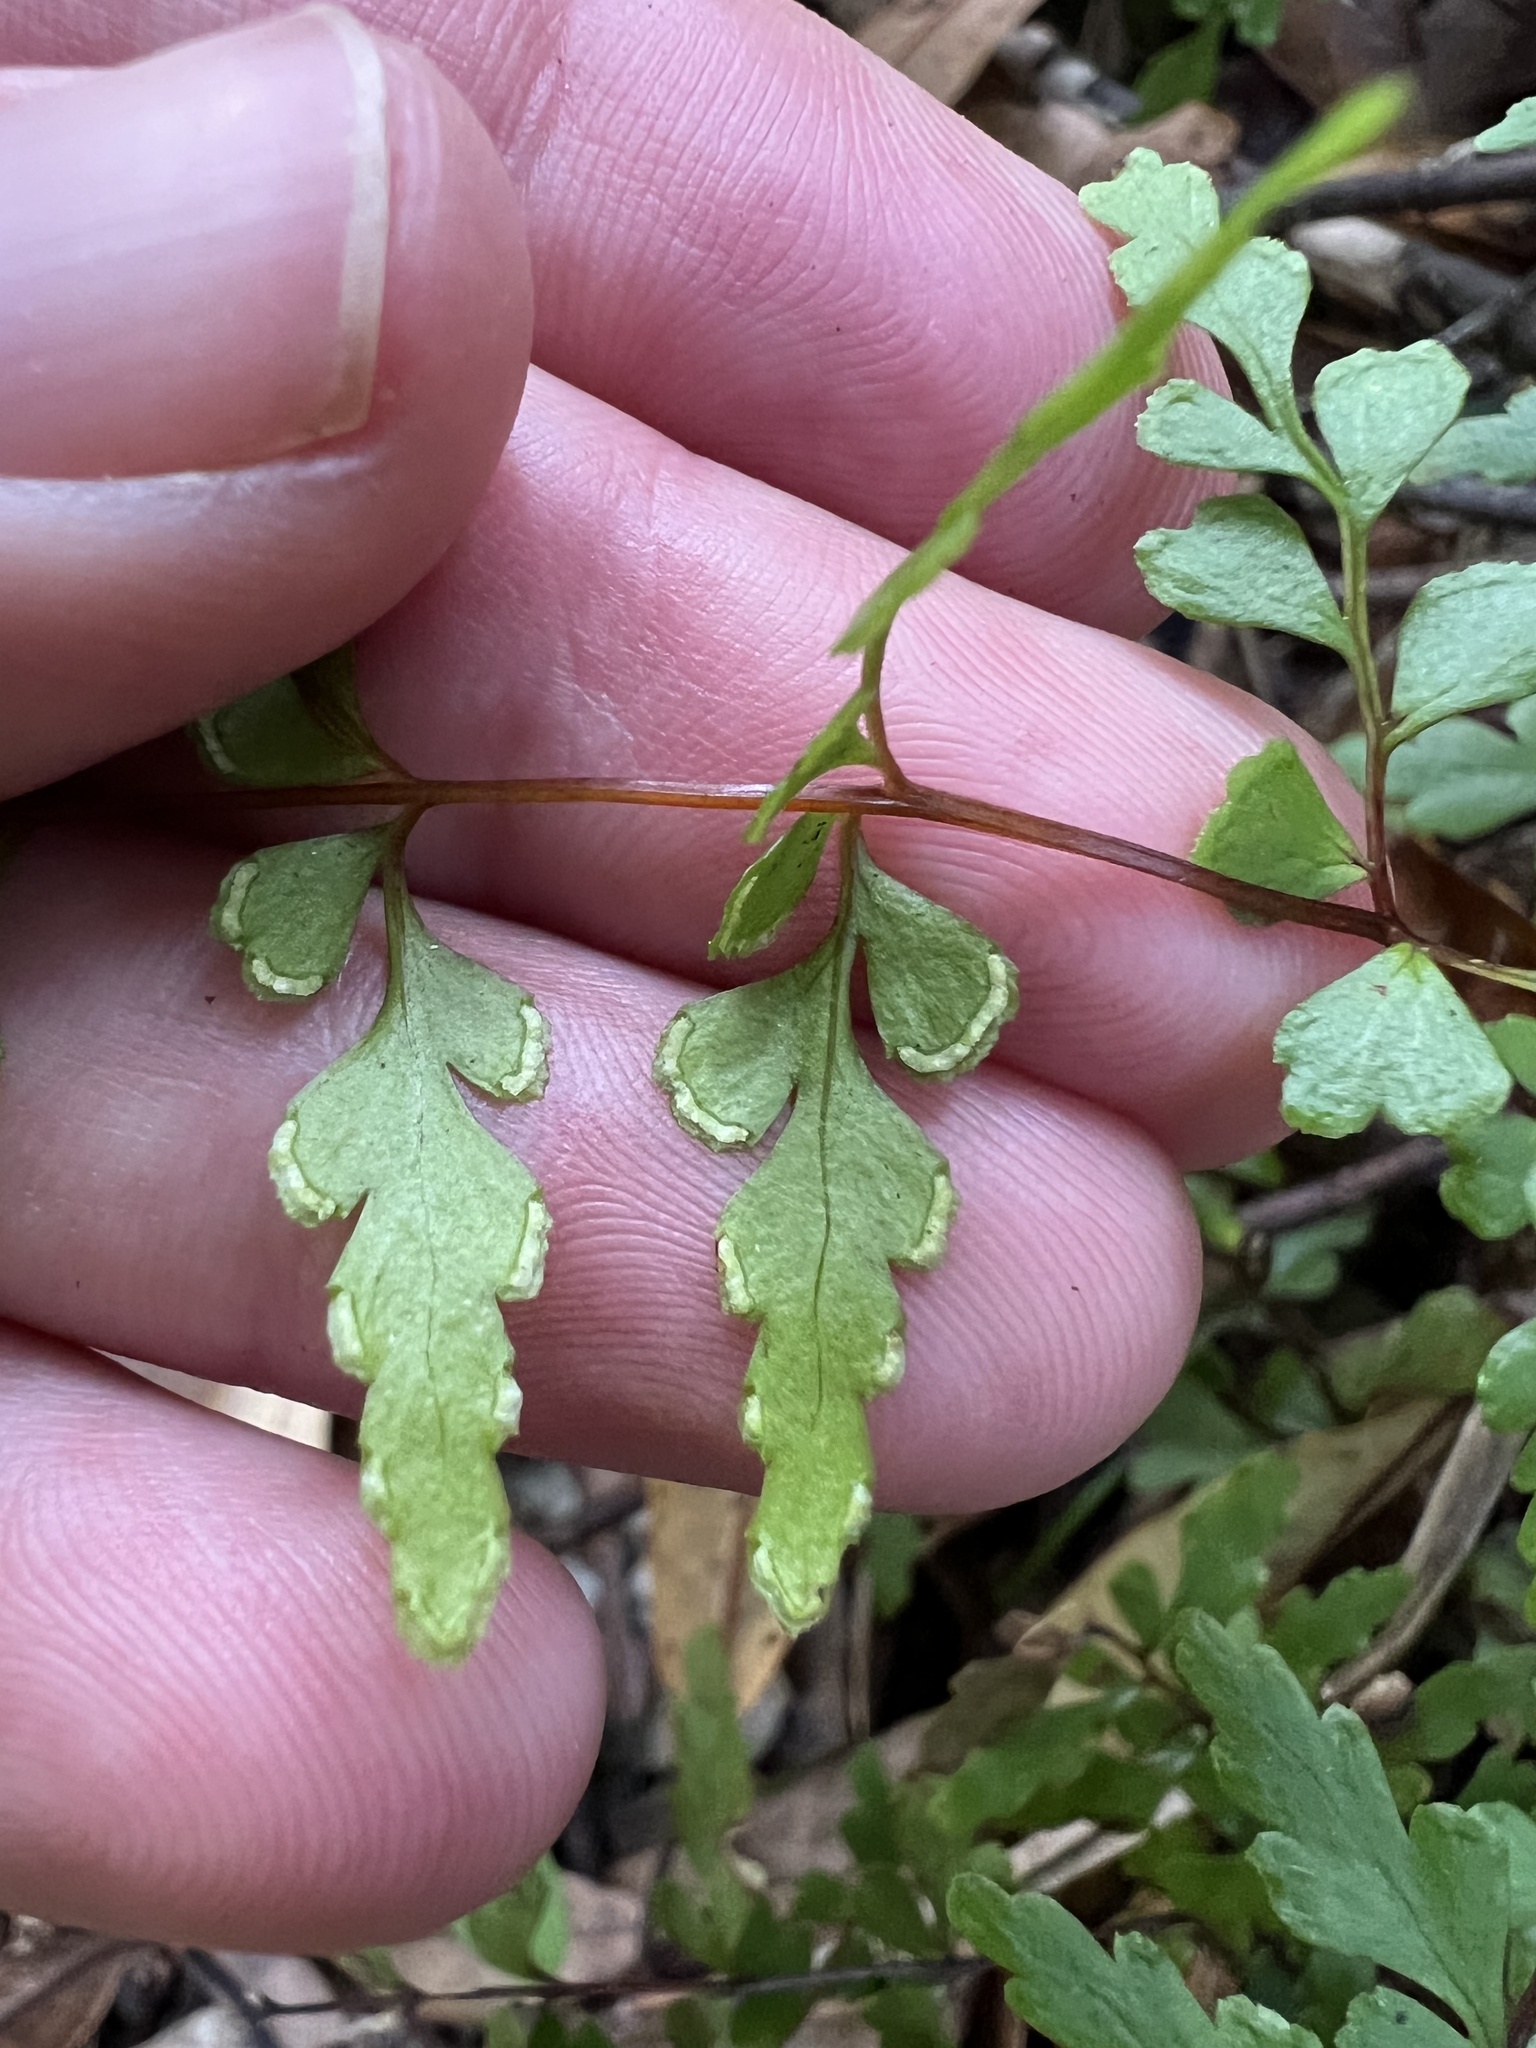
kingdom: Plantae
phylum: Tracheophyta
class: Polypodiopsida
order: Polypodiales
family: Lindsaeaceae
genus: Lindsaea
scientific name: Lindsaea trichomanoides
